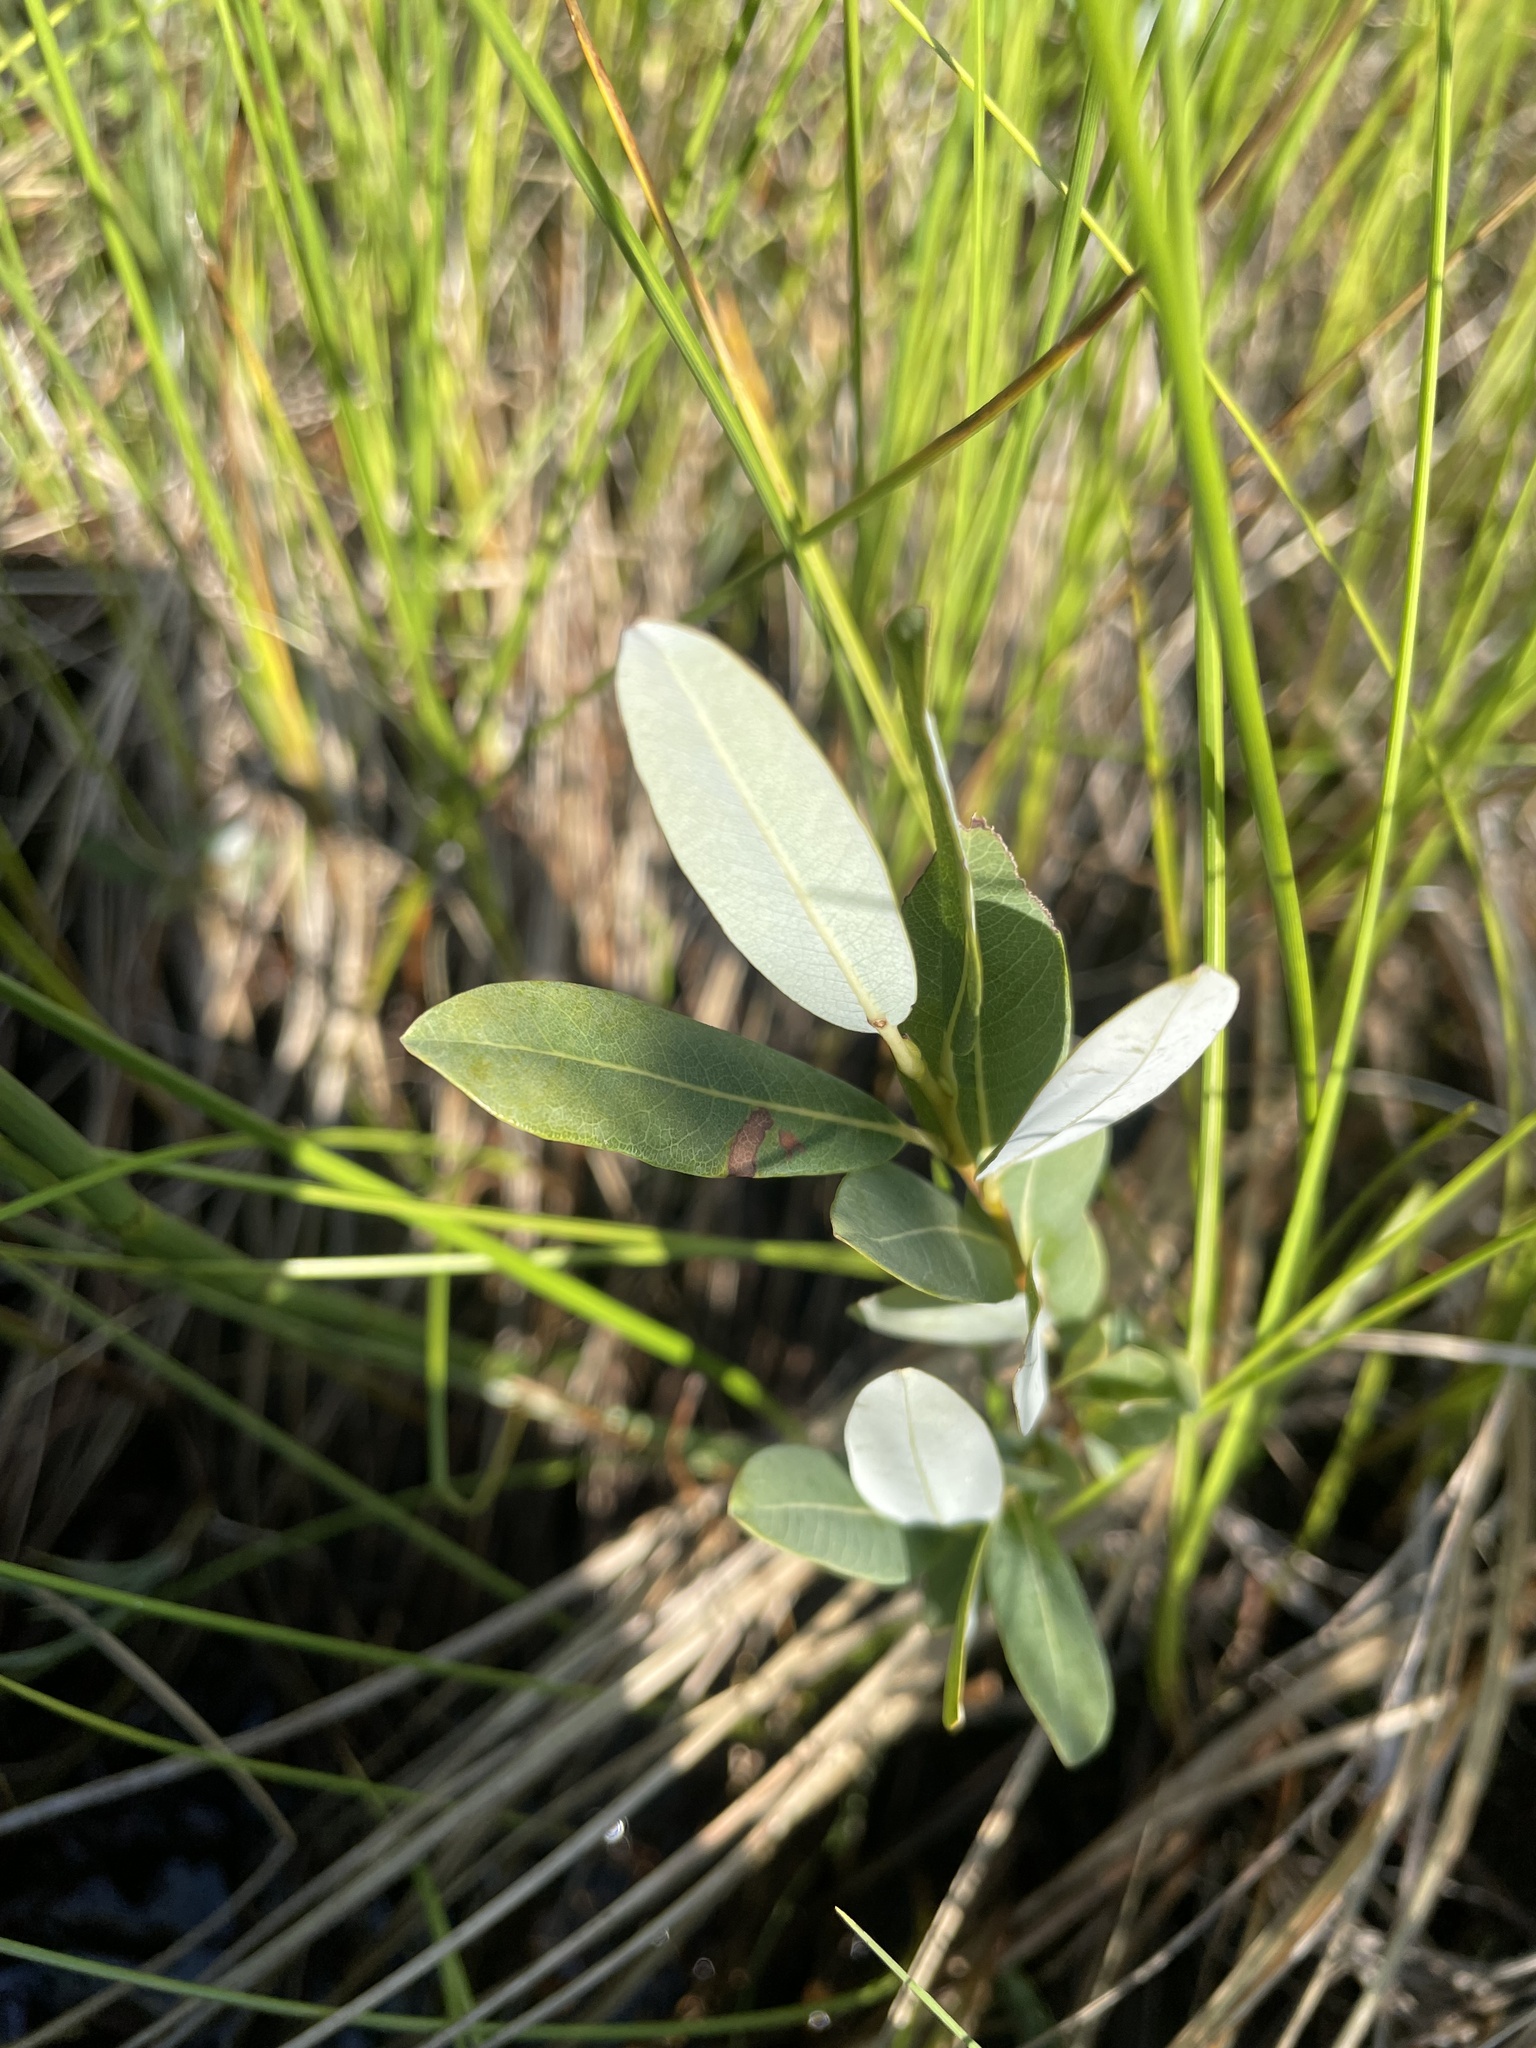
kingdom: Plantae
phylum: Tracheophyta
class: Magnoliopsida
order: Malpighiales
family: Salicaceae
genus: Salix
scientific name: Salix pedicellaris
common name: Bog willow
